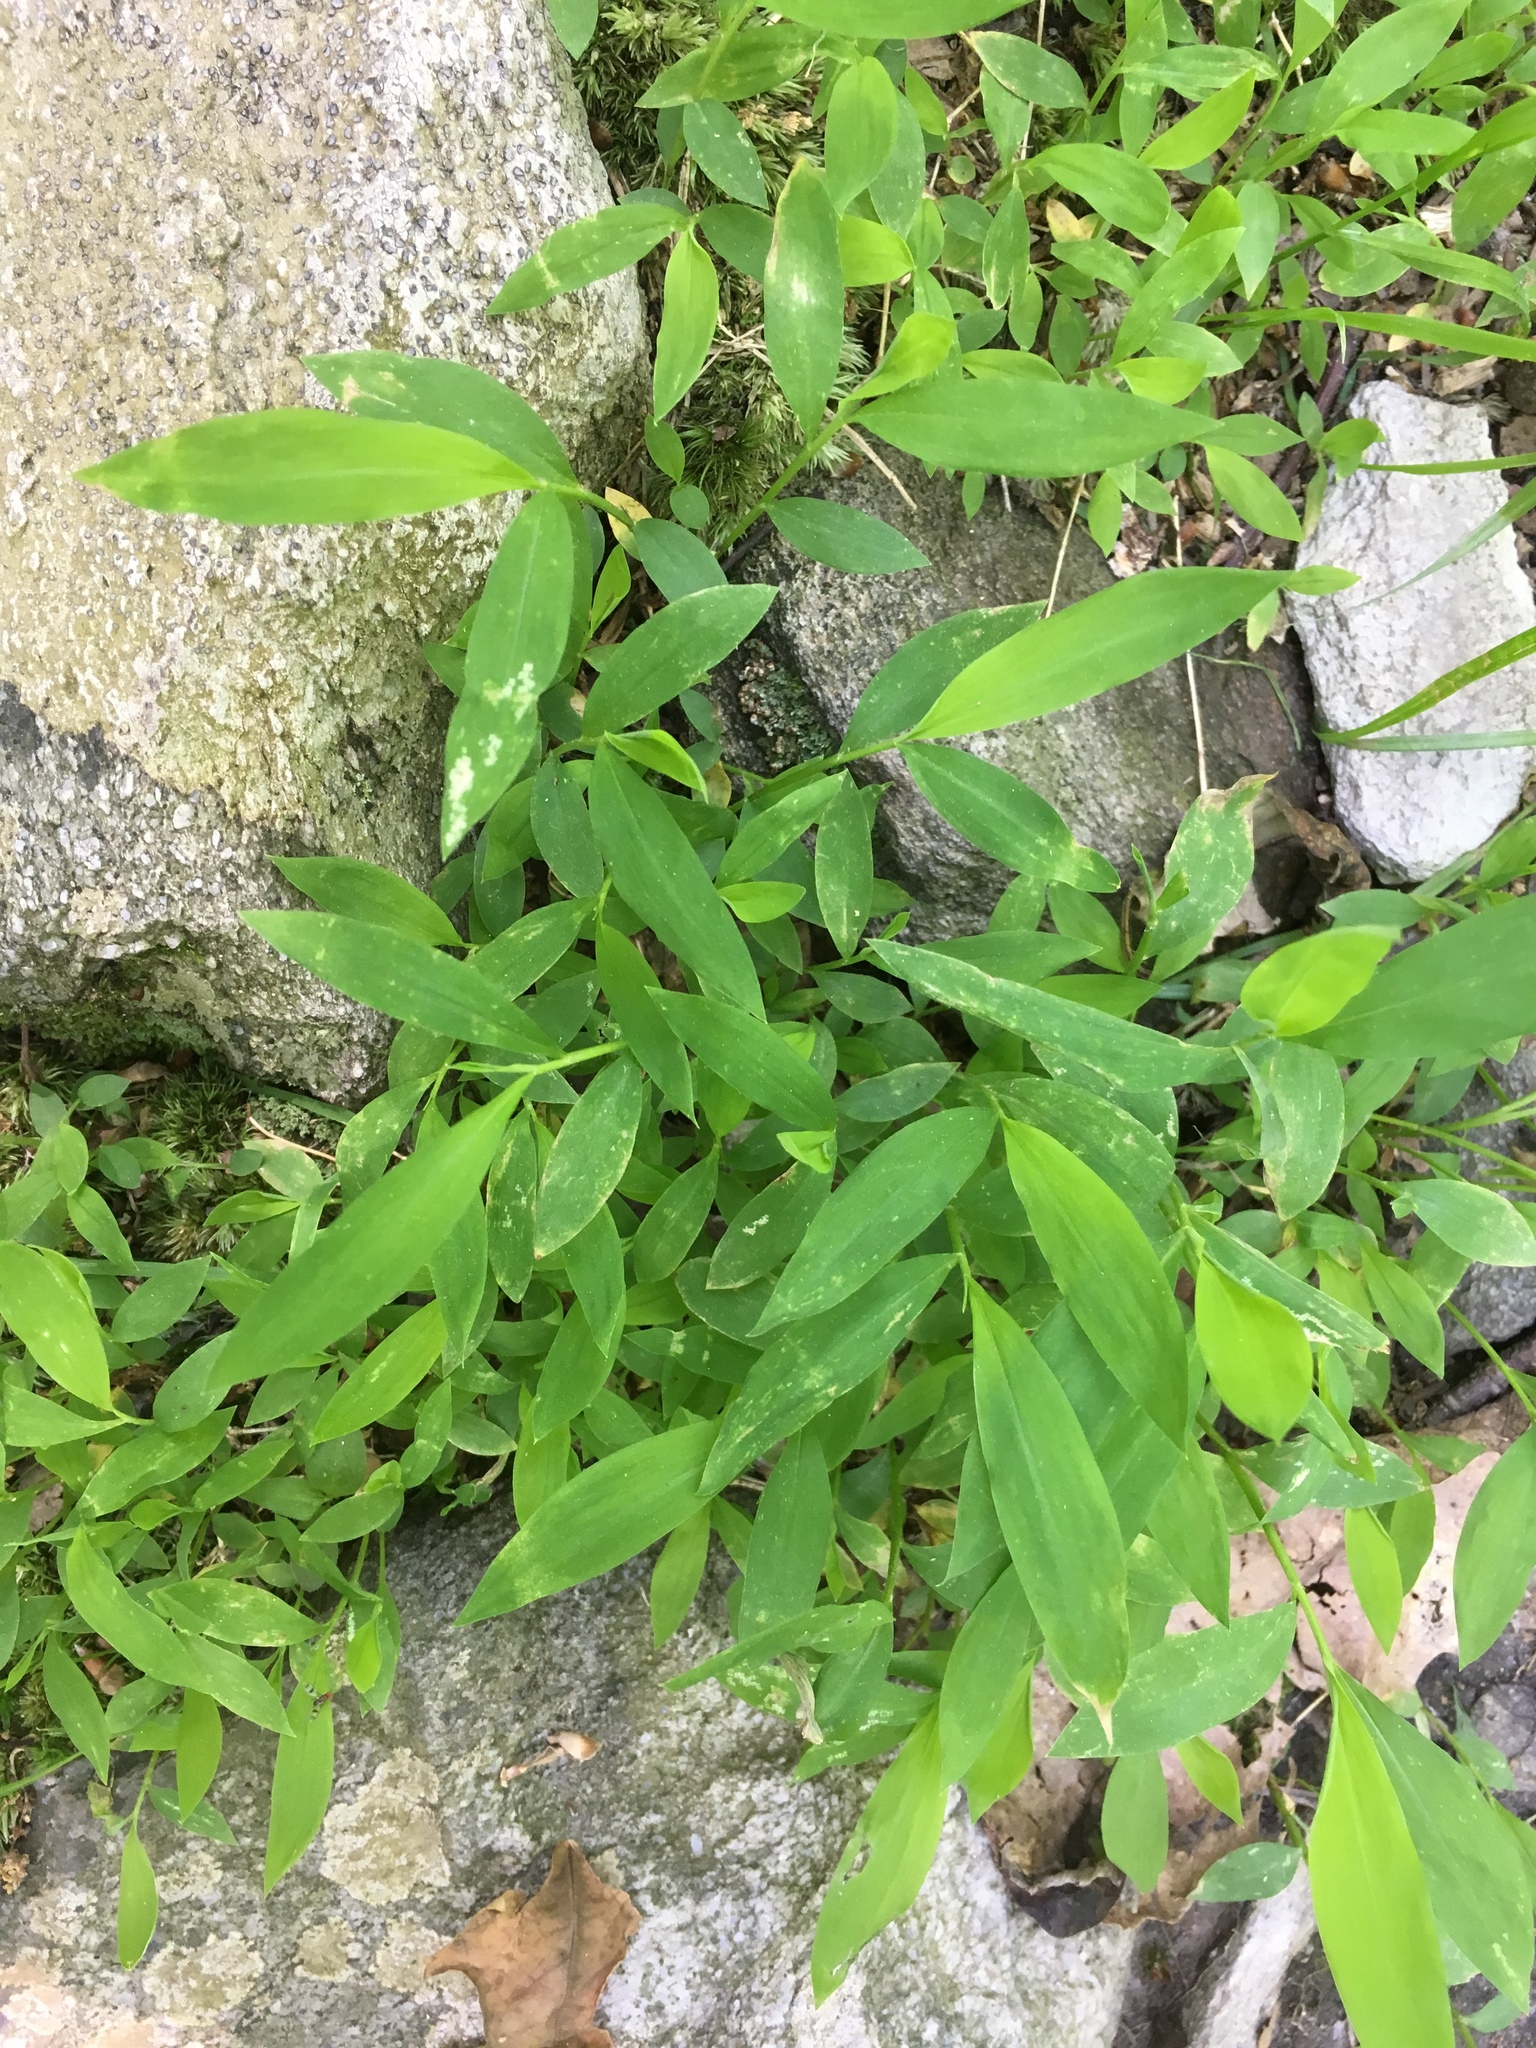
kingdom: Plantae
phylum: Tracheophyta
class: Liliopsida
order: Poales
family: Poaceae
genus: Microstegium
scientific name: Microstegium vimineum
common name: Japanese stiltgrass
